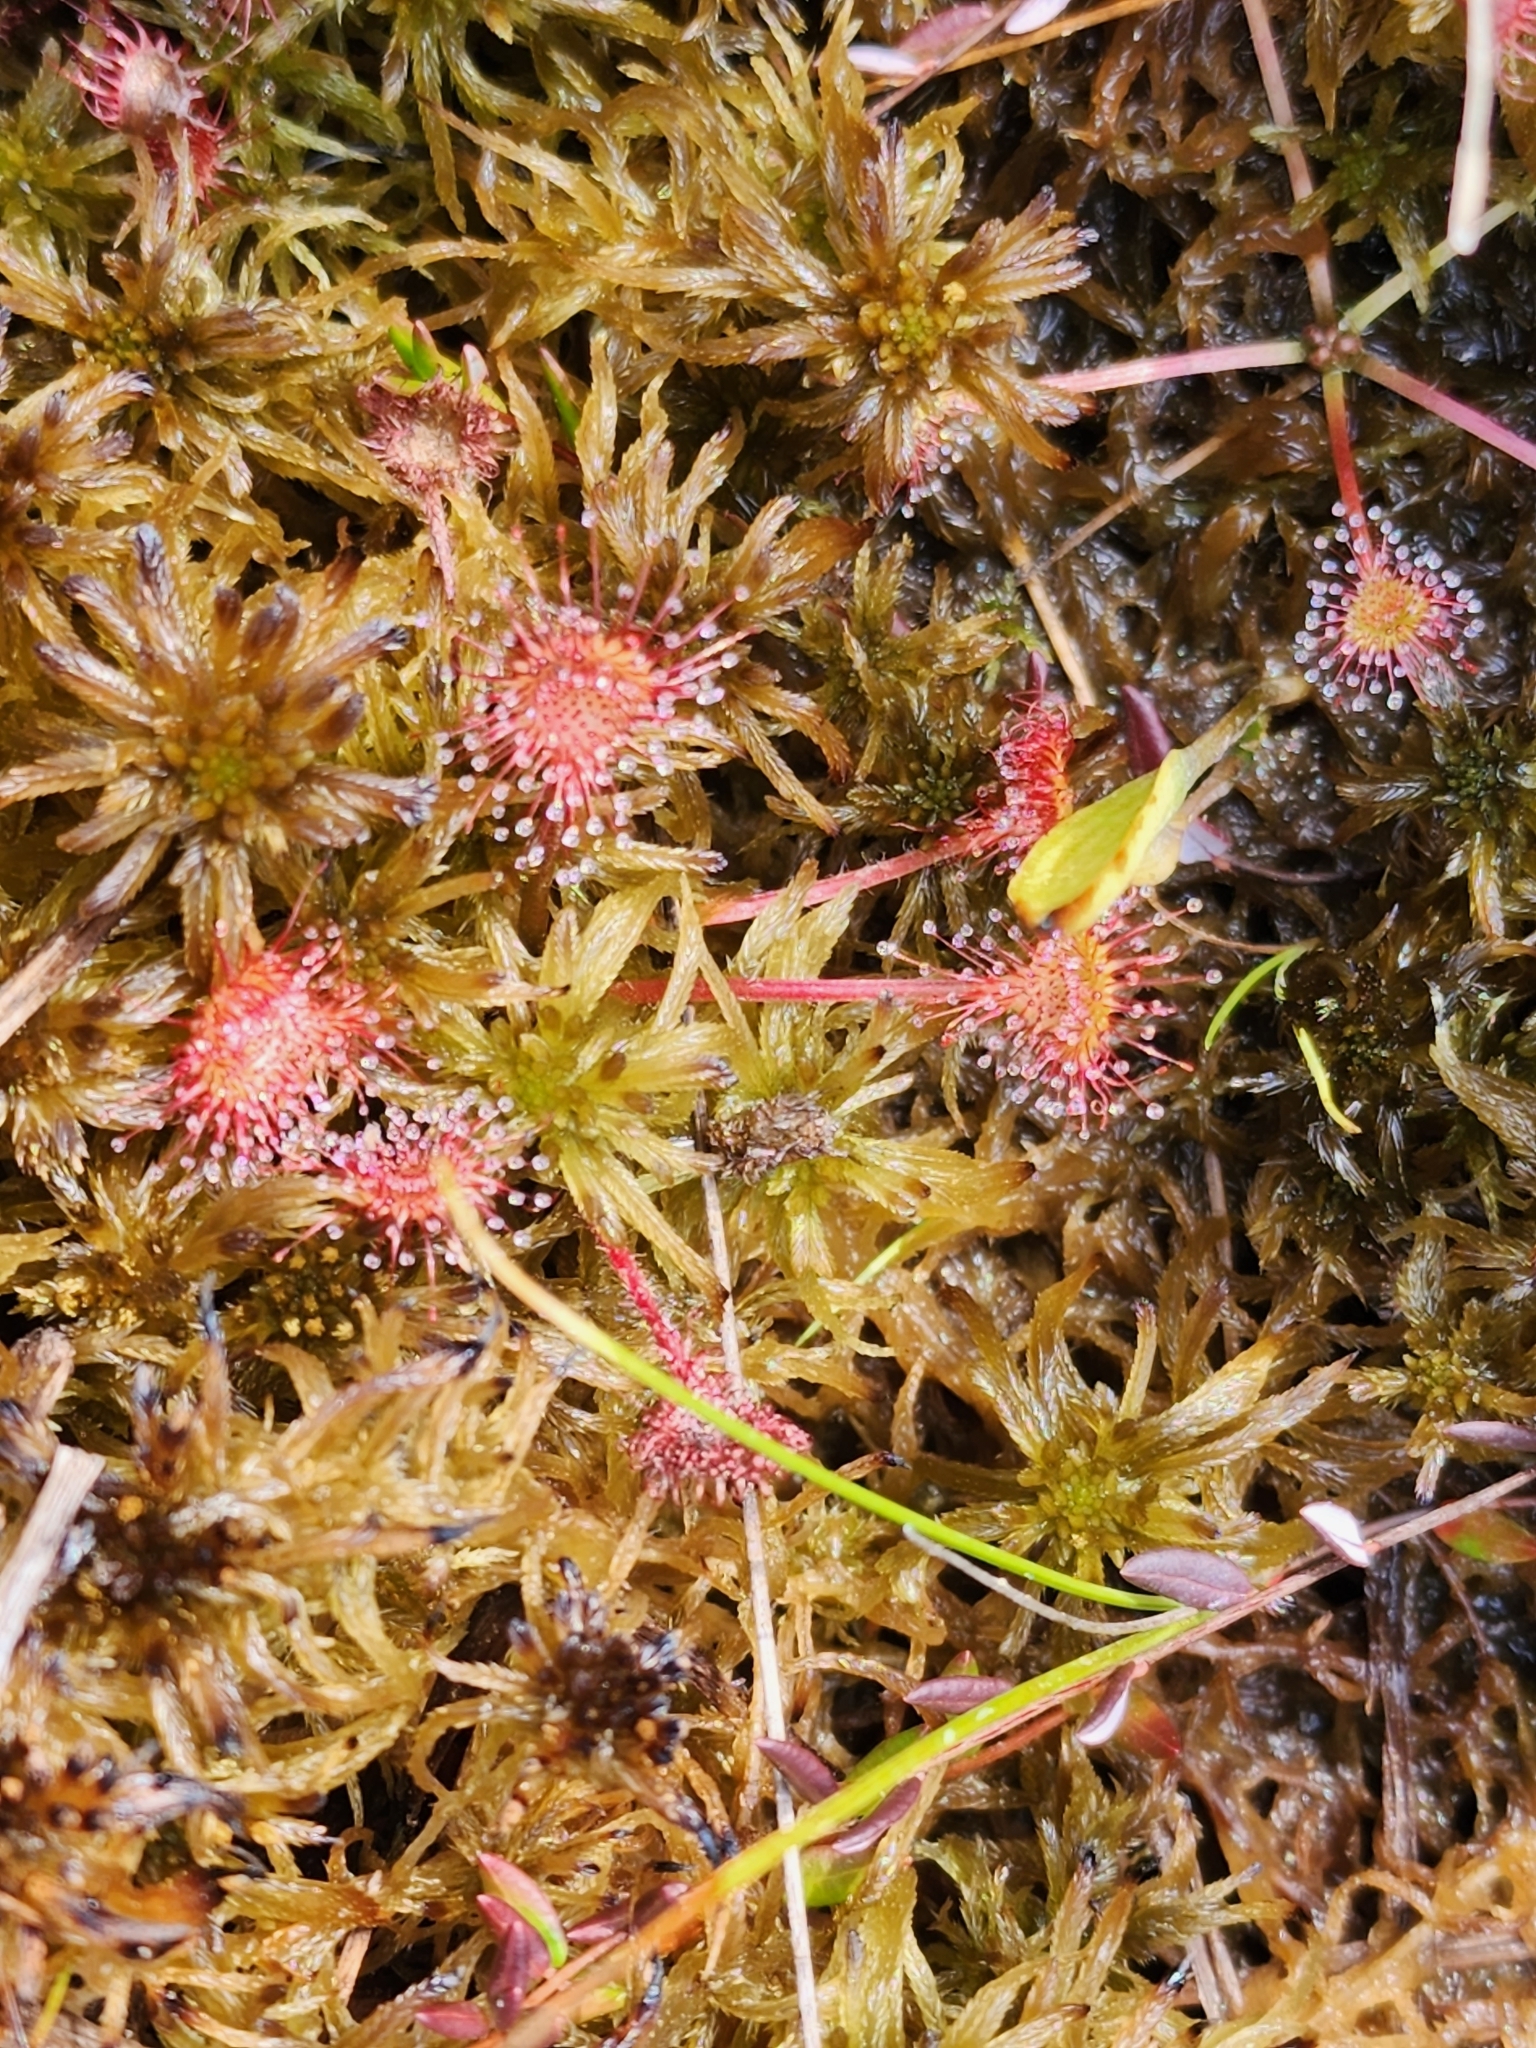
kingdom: Plantae
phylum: Tracheophyta
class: Magnoliopsida
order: Caryophyllales
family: Droseraceae
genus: Drosera
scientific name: Drosera rotundifolia
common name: Round-leaved sundew
